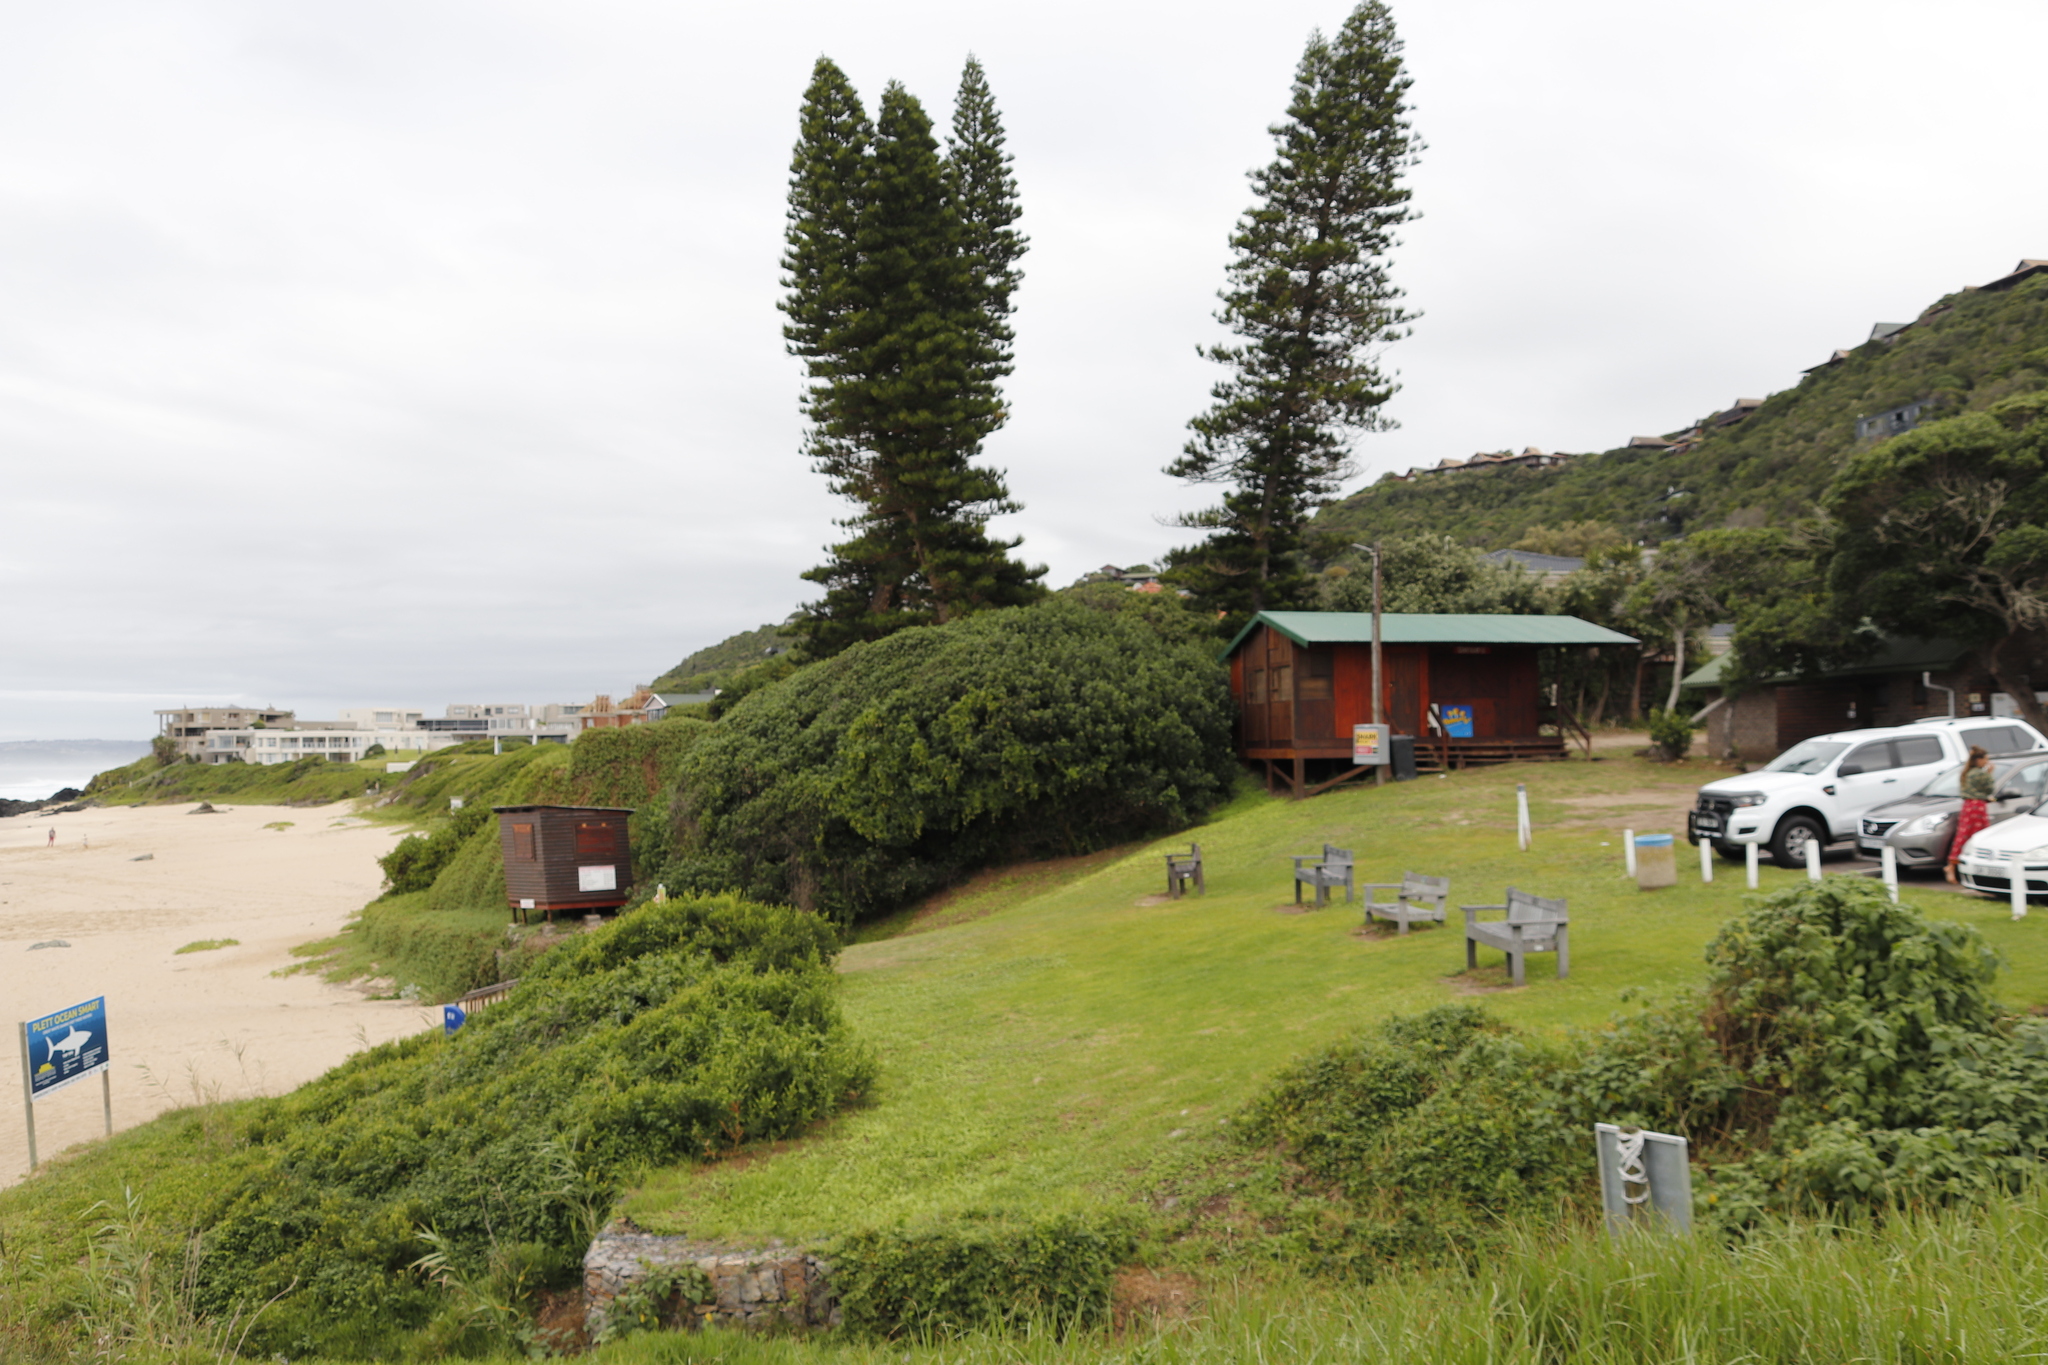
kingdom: Plantae
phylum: Tracheophyta
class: Magnoliopsida
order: Ericales
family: Sapotaceae
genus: Sideroxylon
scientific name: Sideroxylon inerme
